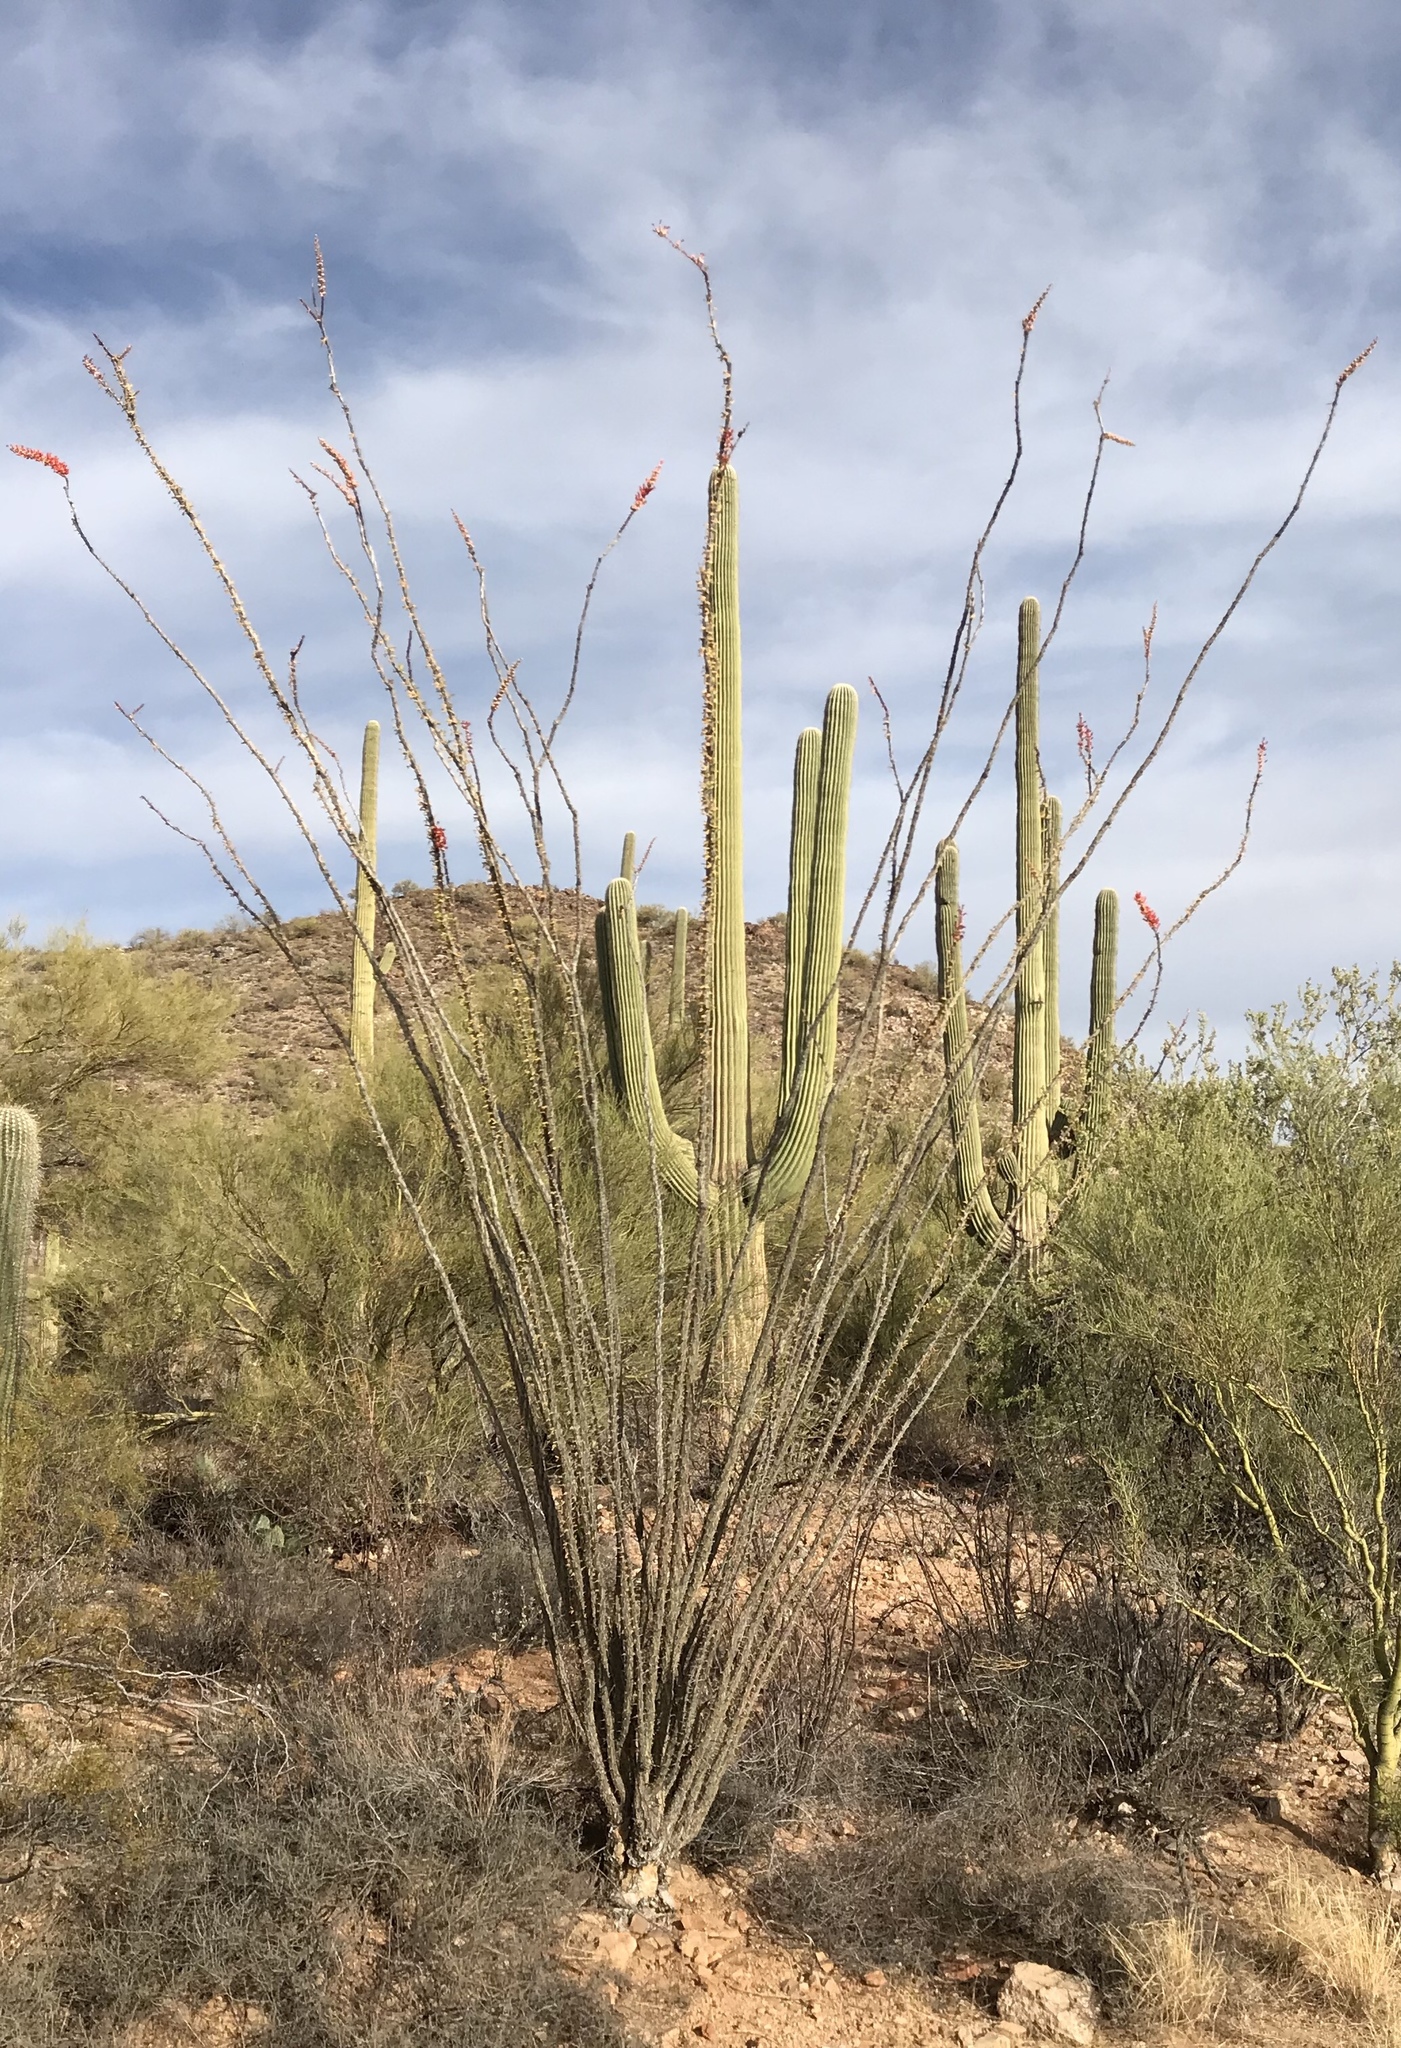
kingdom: Plantae
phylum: Tracheophyta
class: Magnoliopsida
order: Ericales
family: Fouquieriaceae
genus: Fouquieria
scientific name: Fouquieria splendens
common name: Vine-cactus
